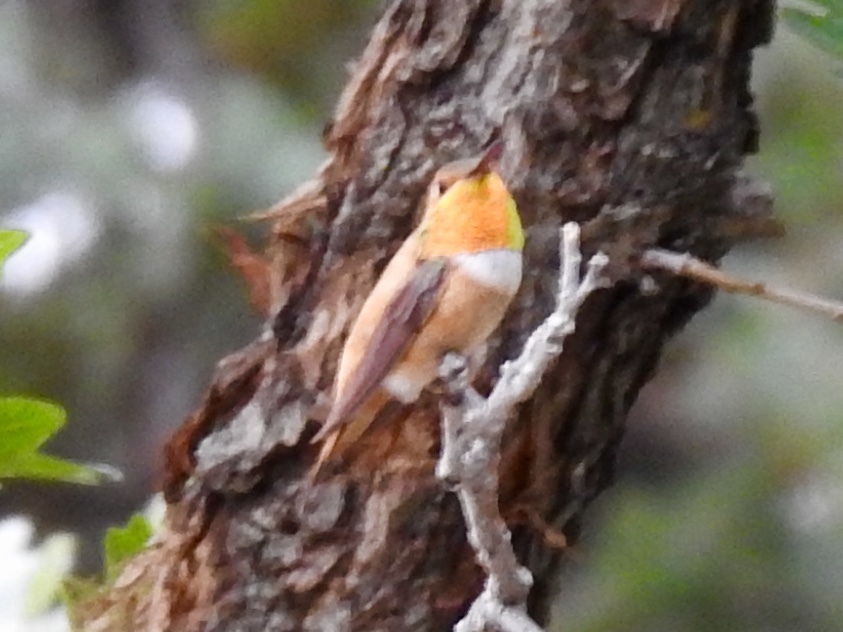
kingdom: Animalia
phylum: Chordata
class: Aves
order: Apodiformes
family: Trochilidae
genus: Selasphorus
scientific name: Selasphorus rufus
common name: Rufous hummingbird
